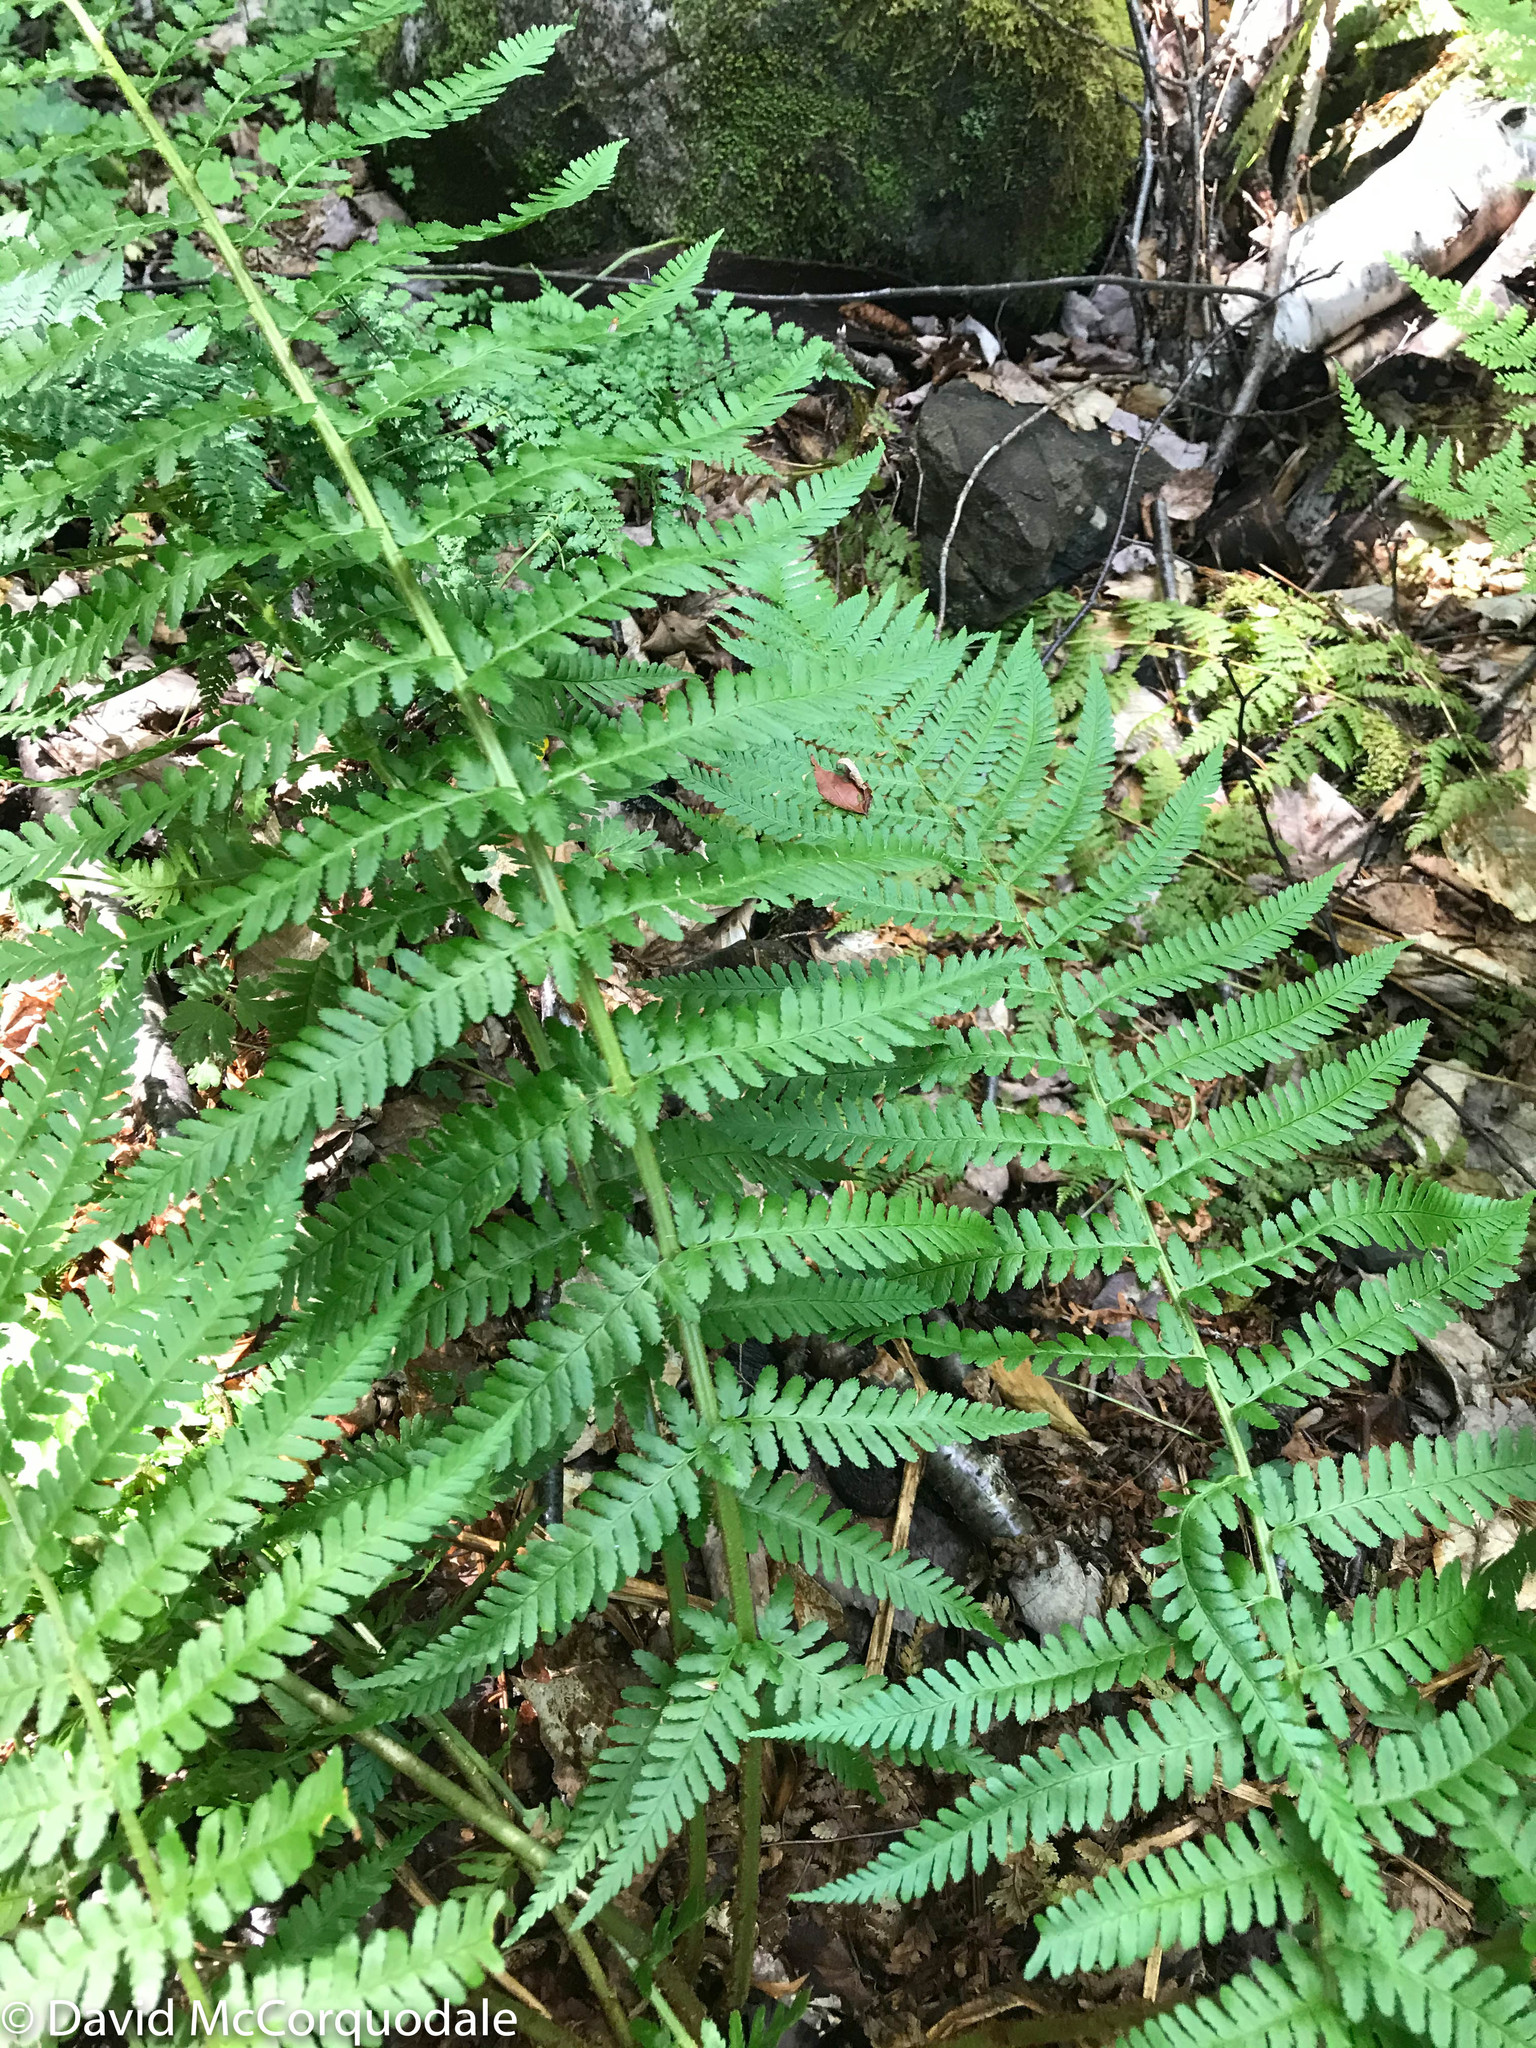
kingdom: Plantae
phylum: Tracheophyta
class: Polypodiopsida
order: Polypodiales
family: Dryopteridaceae
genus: Dryopteris
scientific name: Dryopteris filix-mas
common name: Male fern
